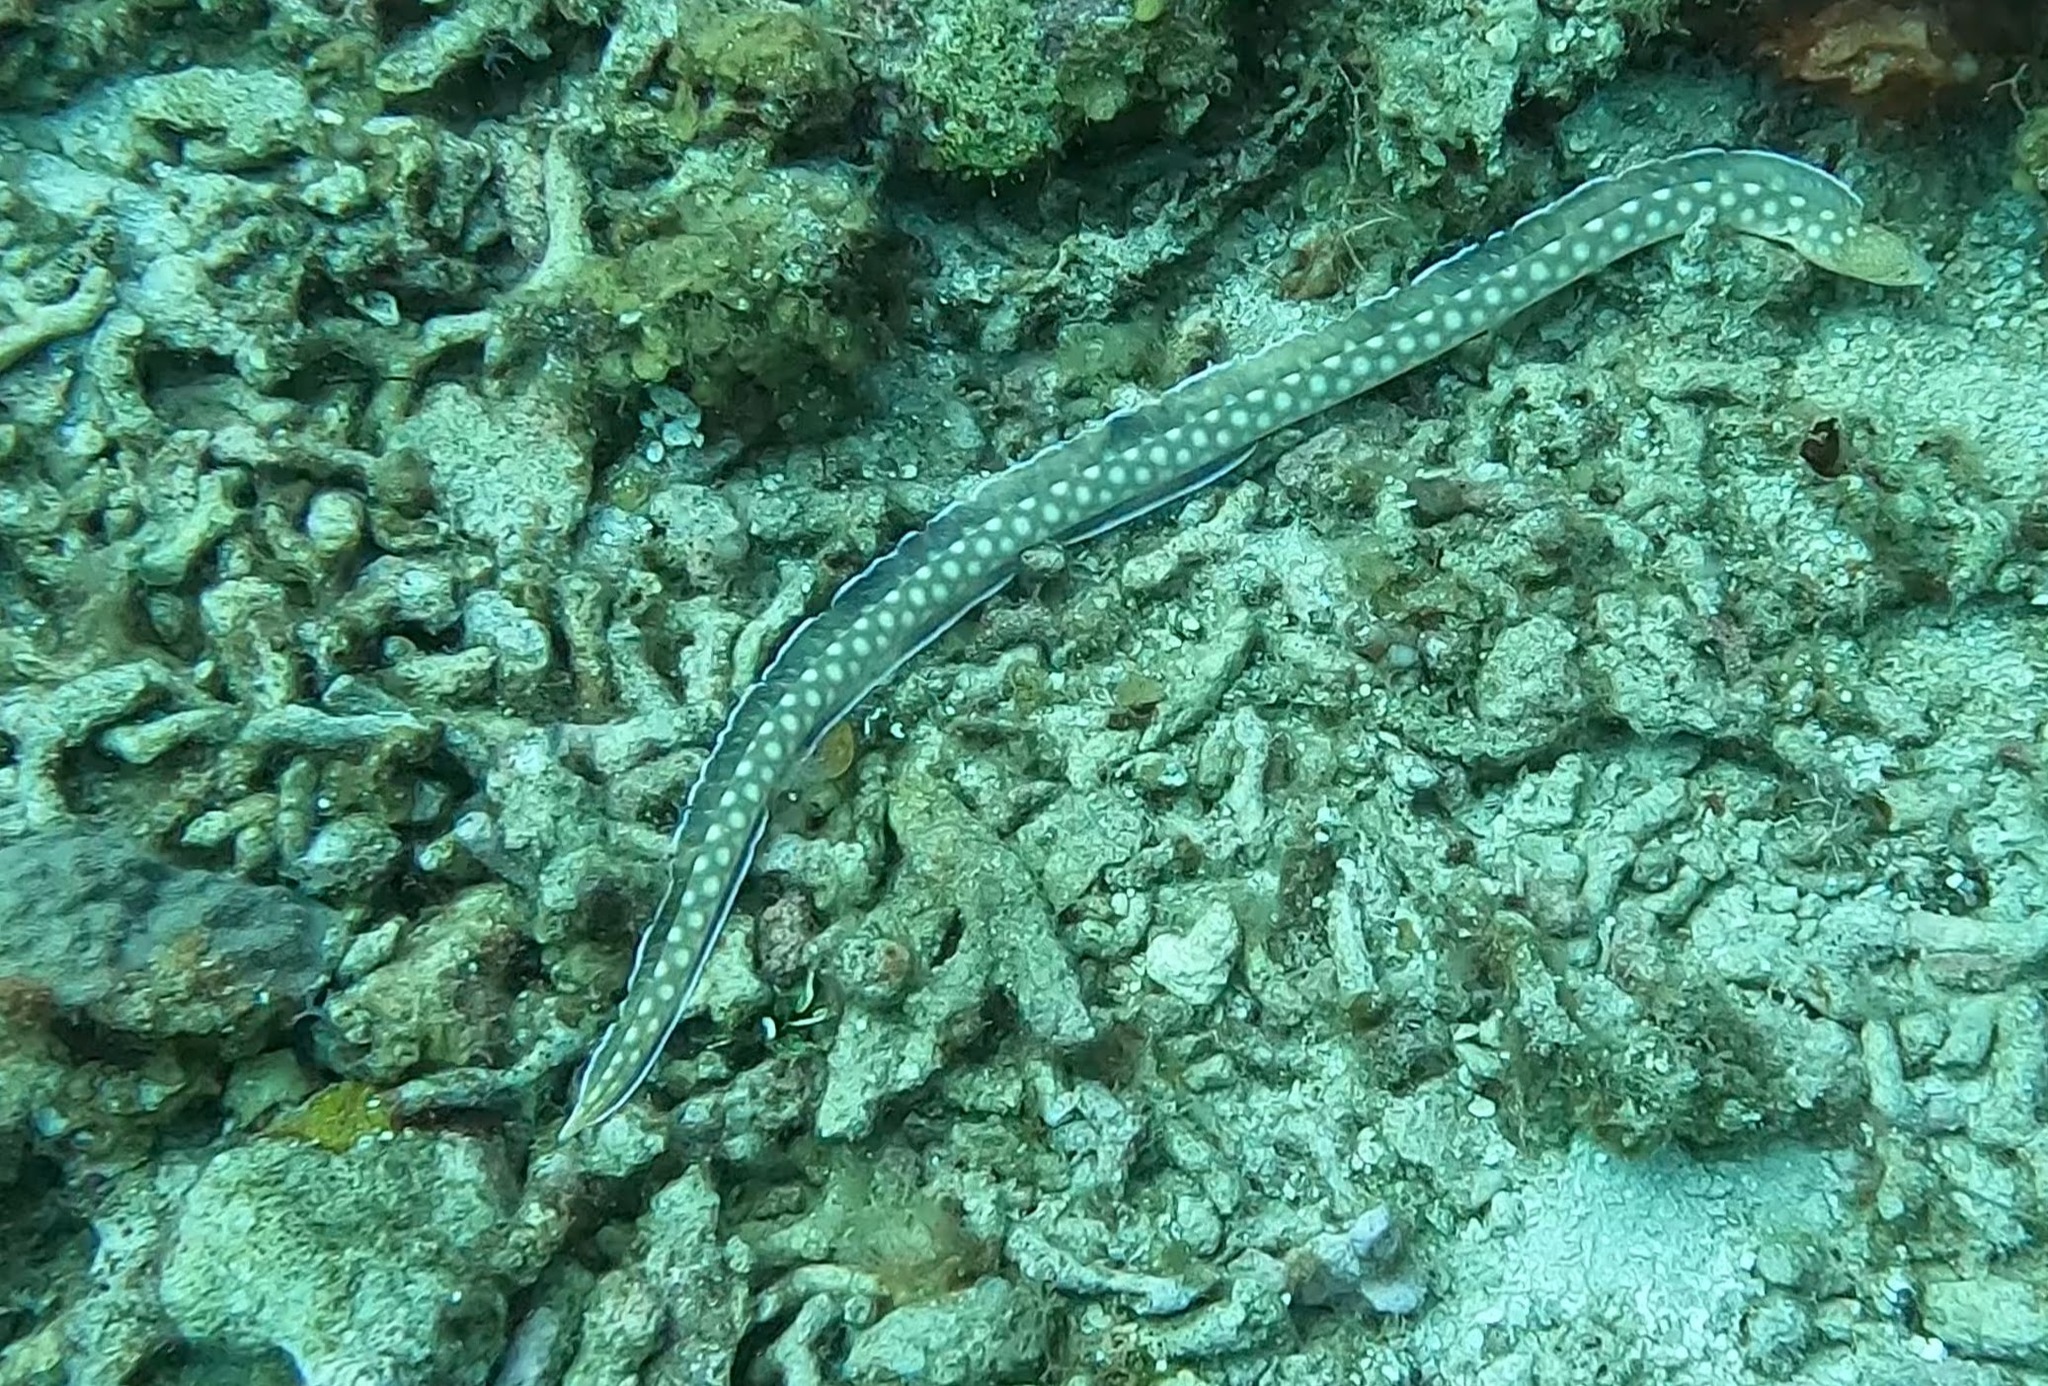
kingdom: Animalia
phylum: Chordata
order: Anguilliformes
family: Ophichthidae
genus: Myrichthys
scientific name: Myrichthys breviceps
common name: Sharptail eel
